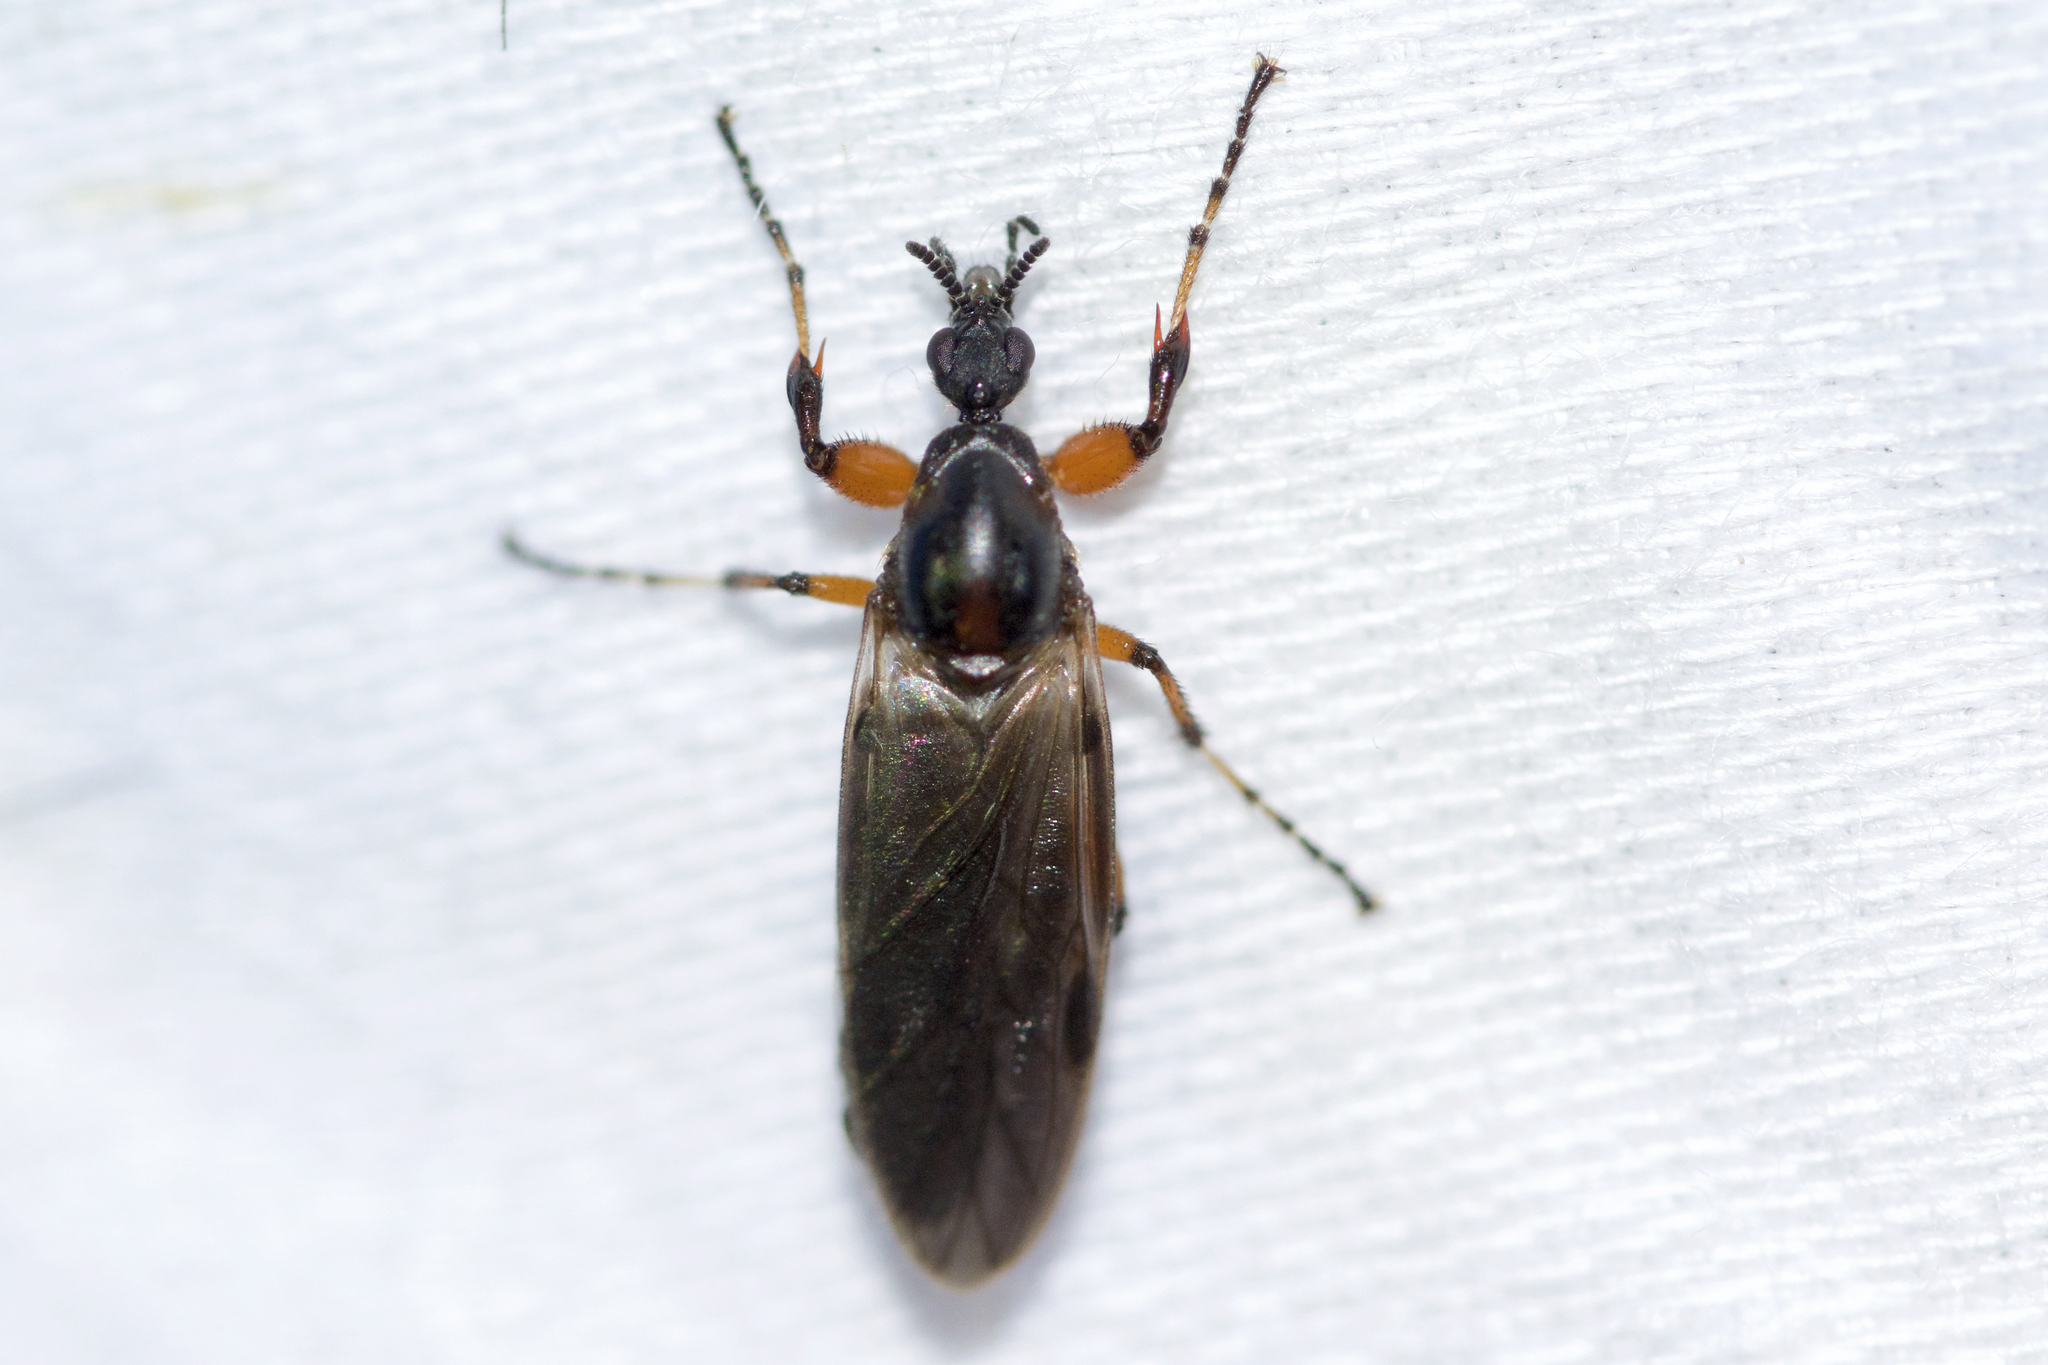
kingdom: Animalia
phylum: Arthropoda
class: Insecta
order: Diptera
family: Bibionidae
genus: Bibio
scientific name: Bibio articulatus
